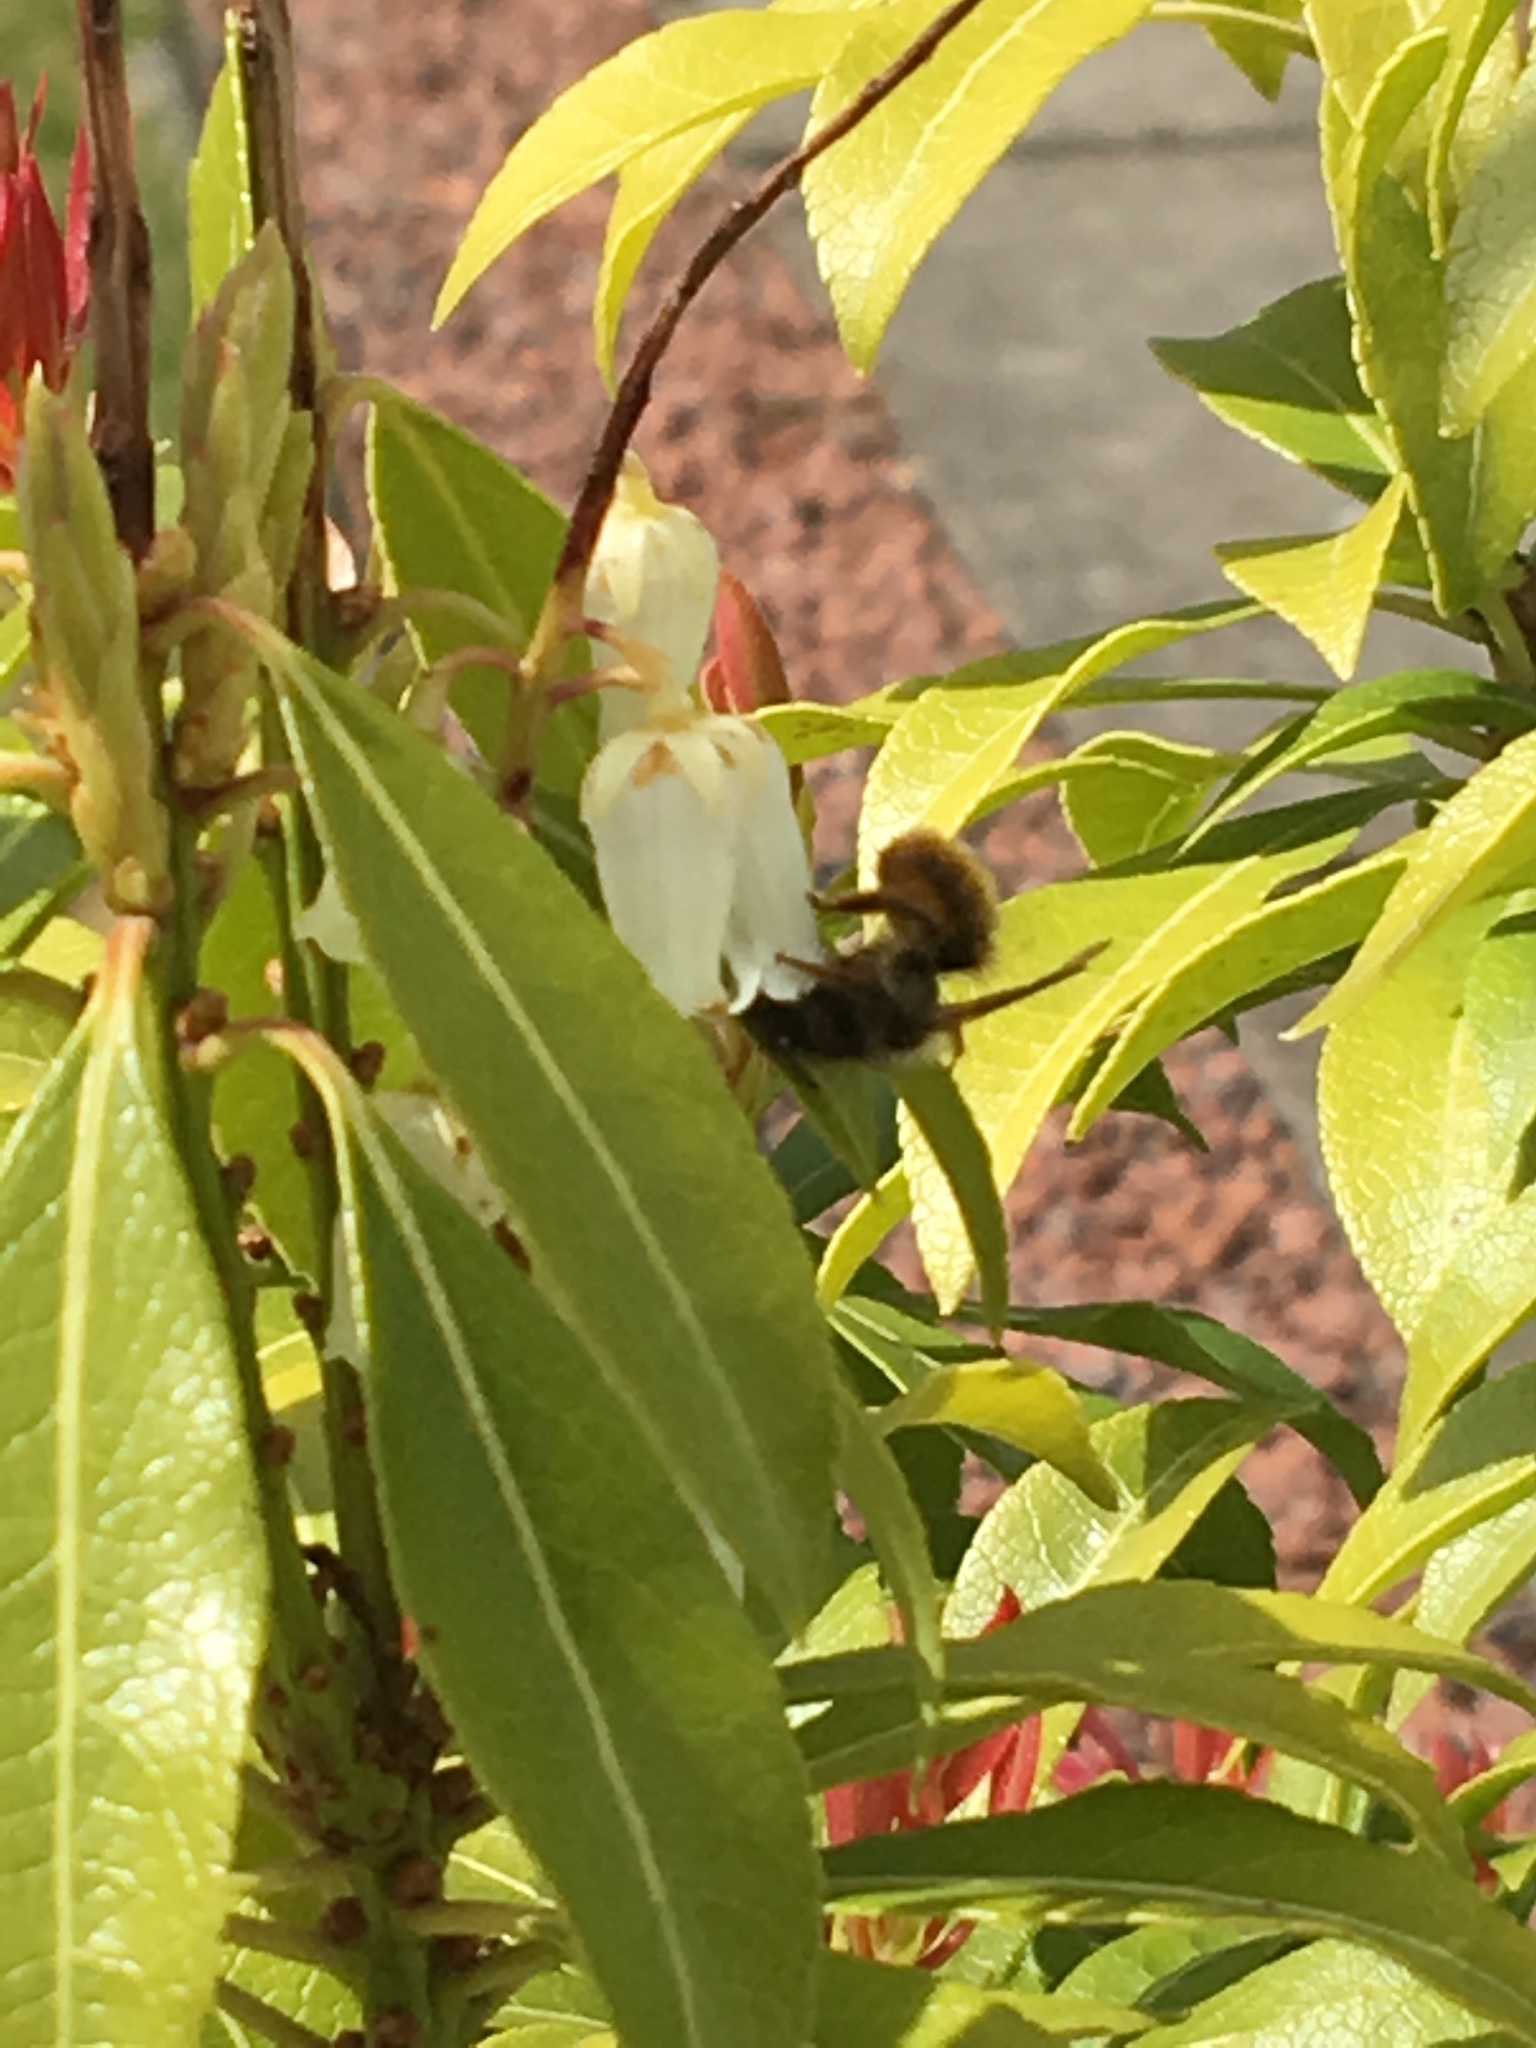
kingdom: Animalia
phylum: Arthropoda
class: Insecta
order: Hymenoptera
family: Megachilidae
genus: Osmia
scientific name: Osmia bicornis
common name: Red mason bee
